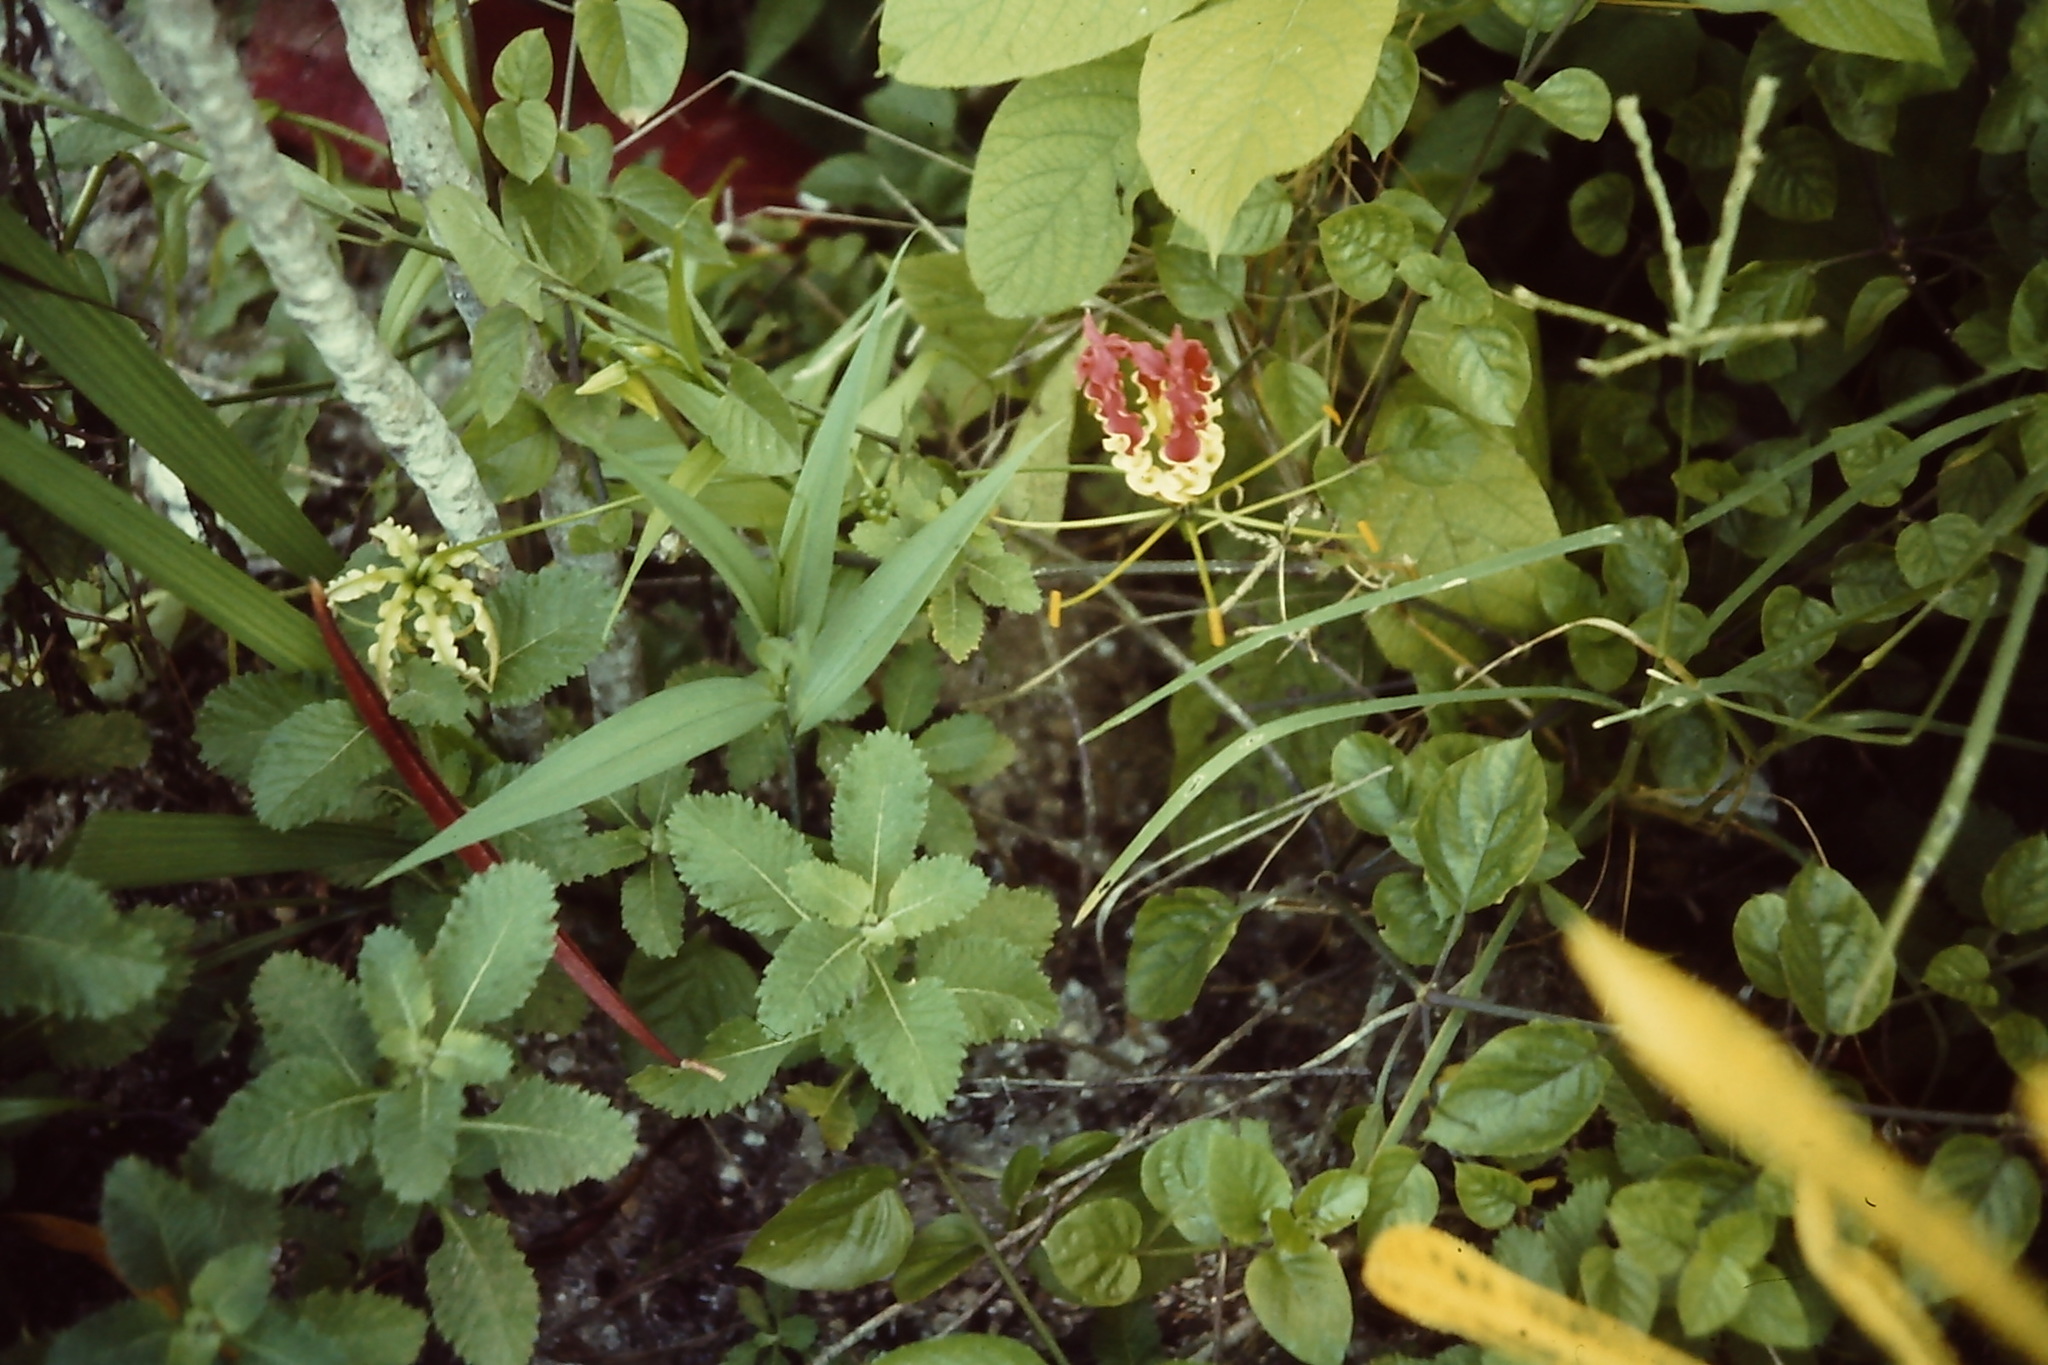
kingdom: Plantae
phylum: Tracheophyta
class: Liliopsida
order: Liliales
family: Colchicaceae
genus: Gloriosa
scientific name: Gloriosa superba
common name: Flame lily
